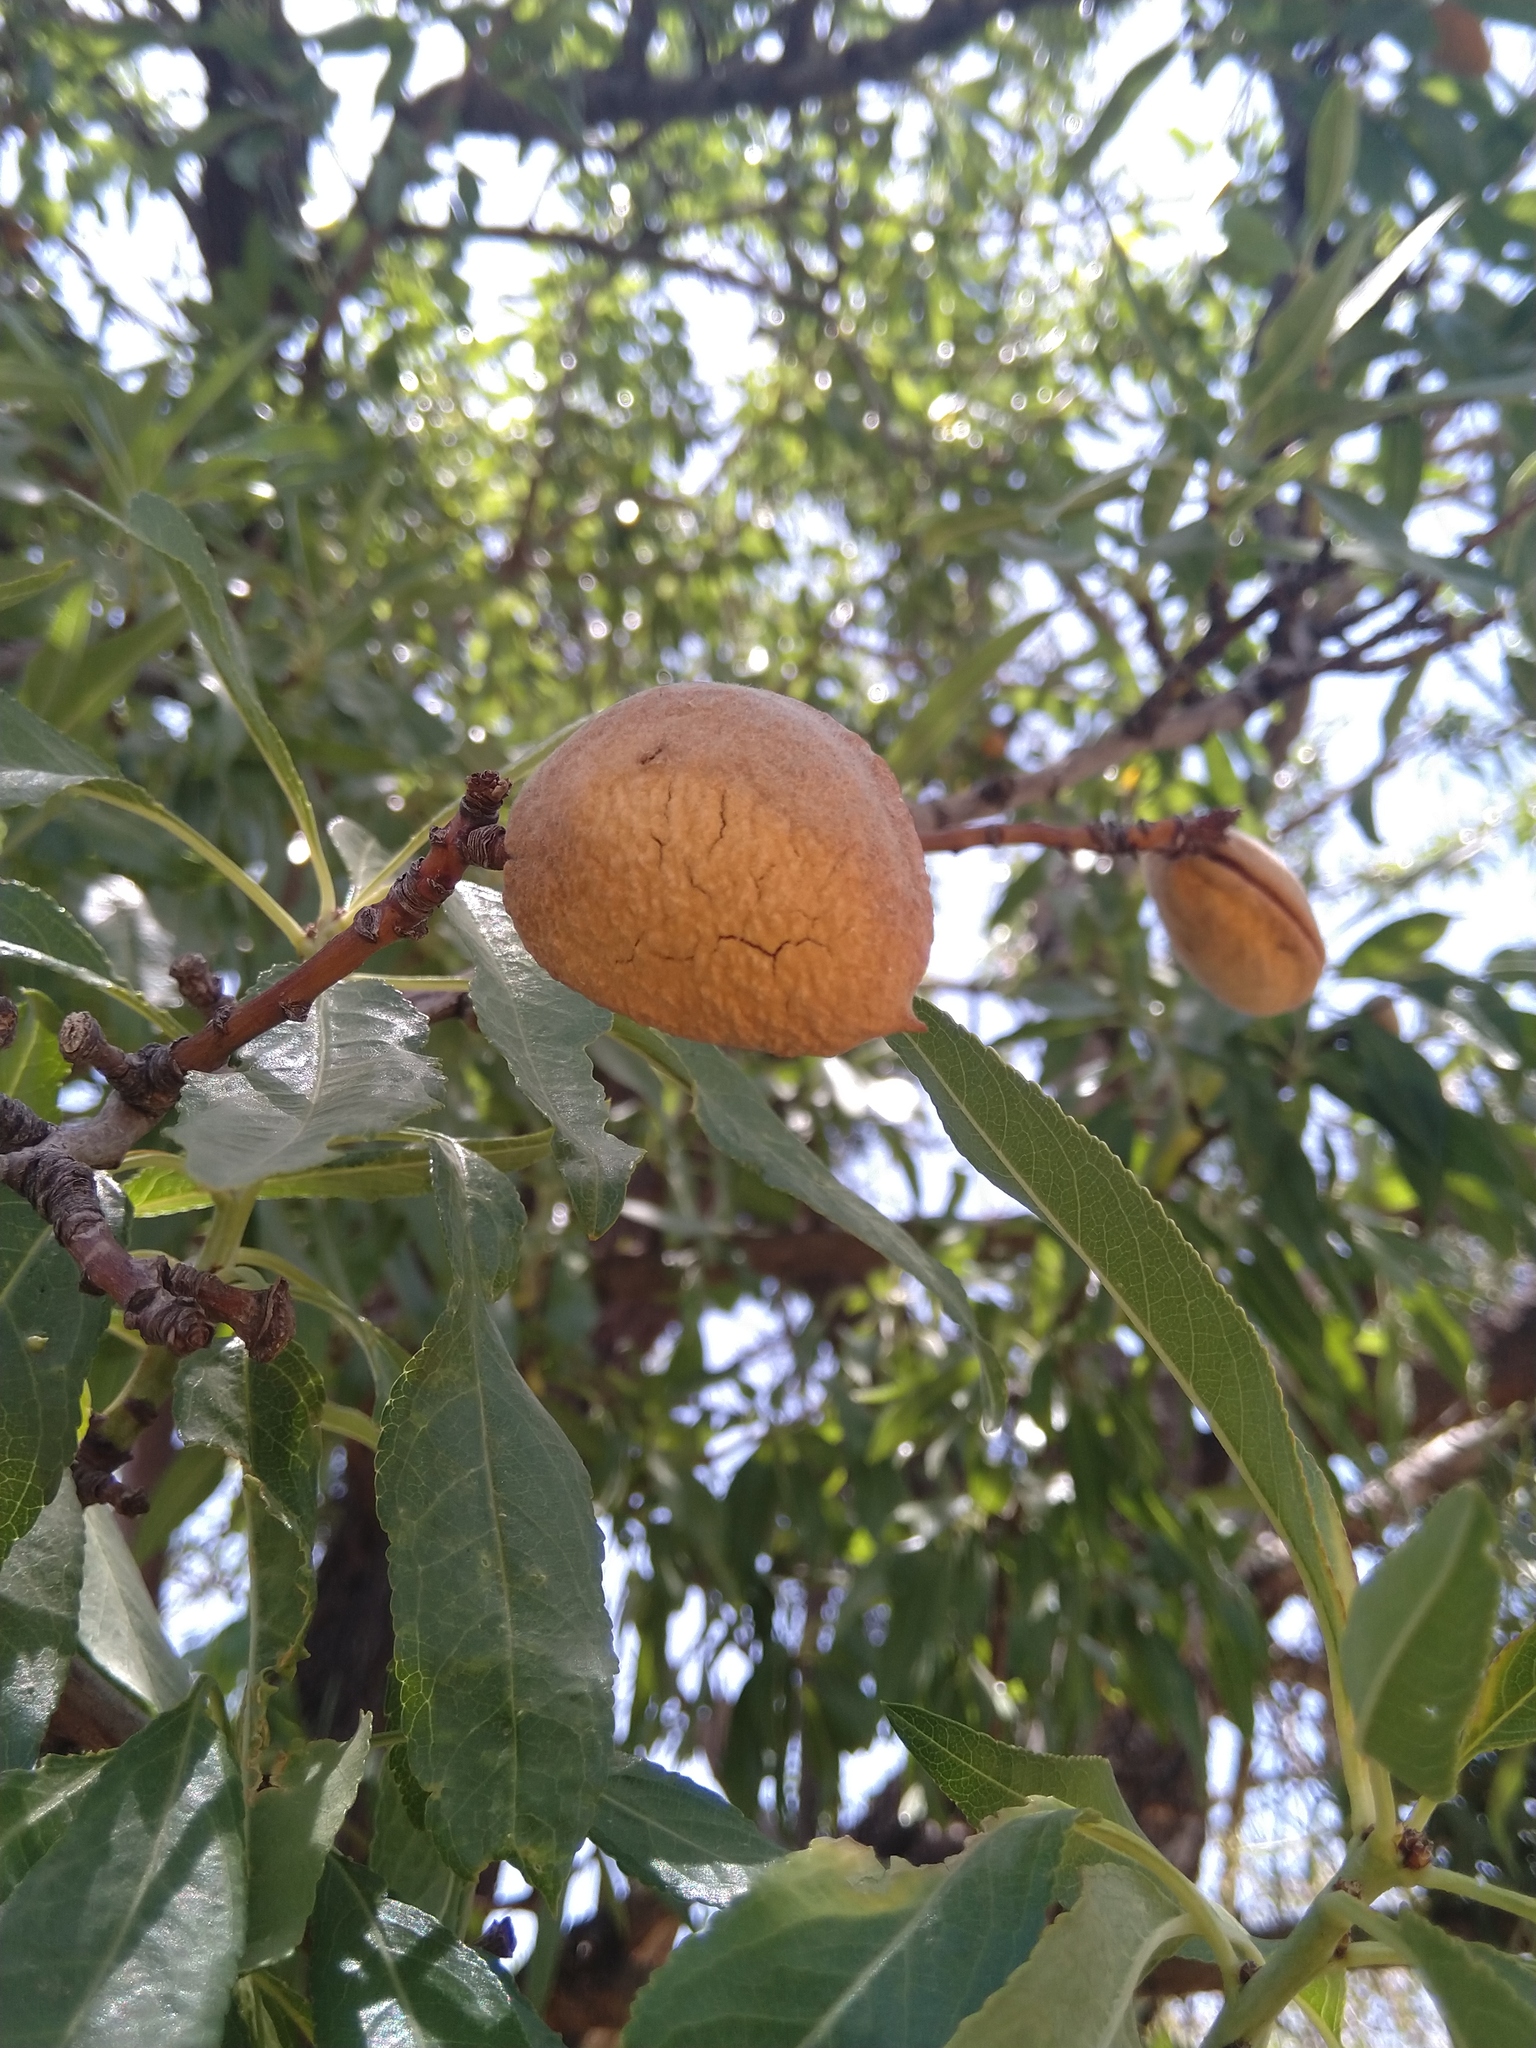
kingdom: Plantae
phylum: Tracheophyta
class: Magnoliopsida
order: Rosales
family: Rosaceae
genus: Prunus
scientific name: Prunus amygdalus
